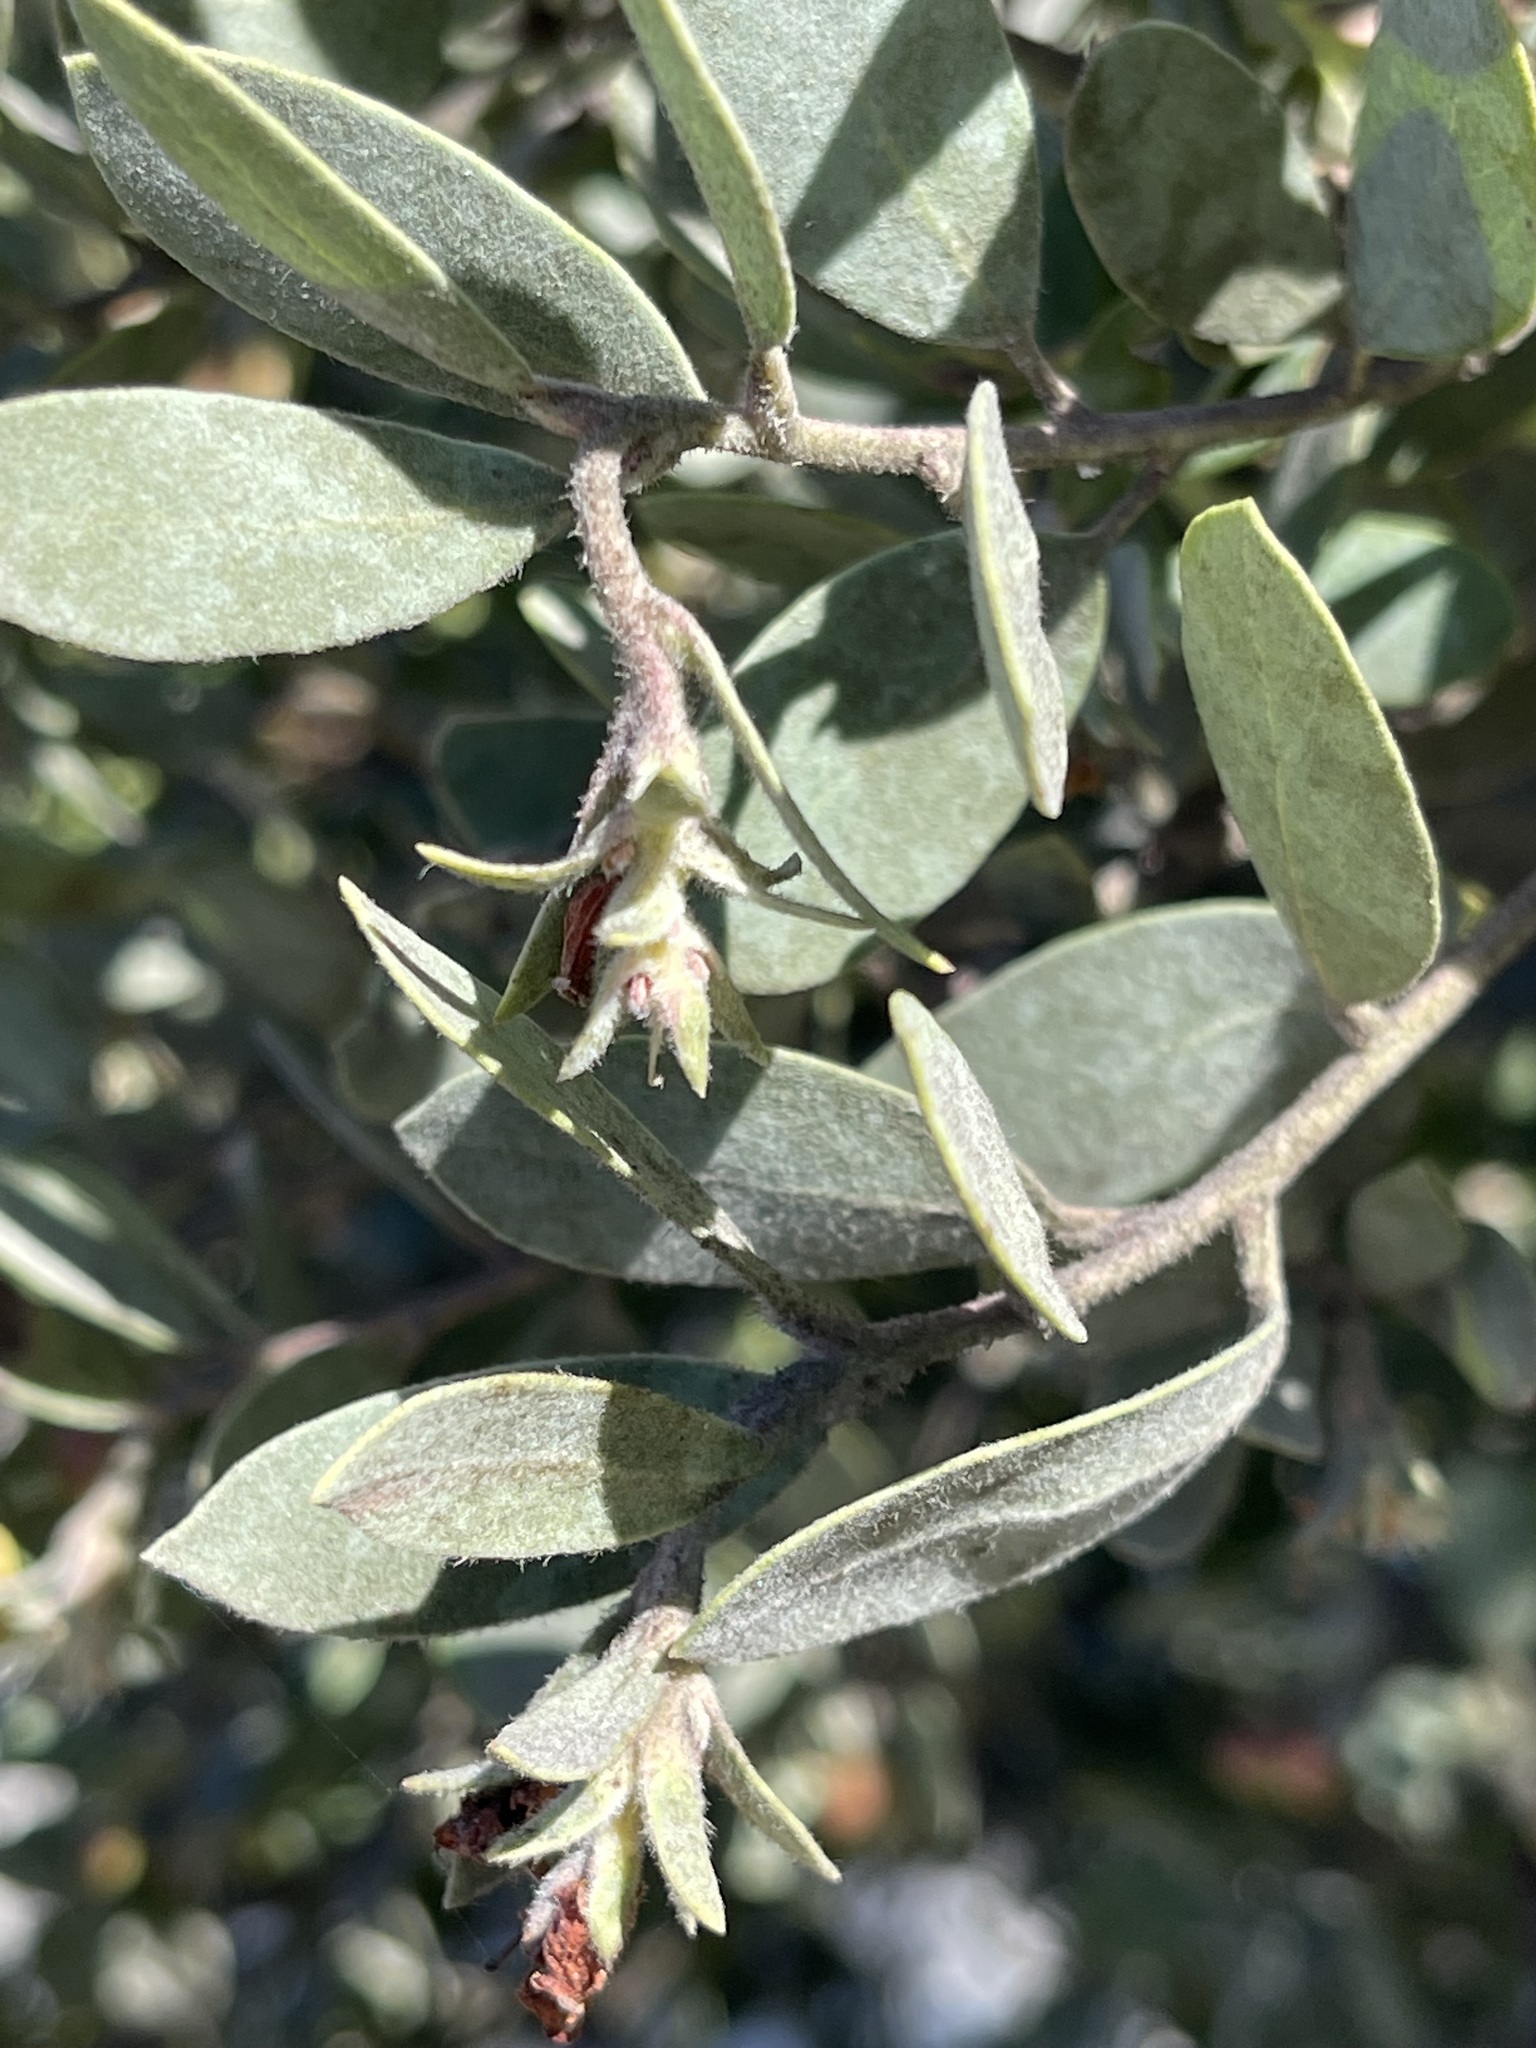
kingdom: Plantae
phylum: Tracheophyta
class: Magnoliopsida
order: Ericales
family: Ericaceae
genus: Arctostaphylos
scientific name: Arctostaphylos silvicola
